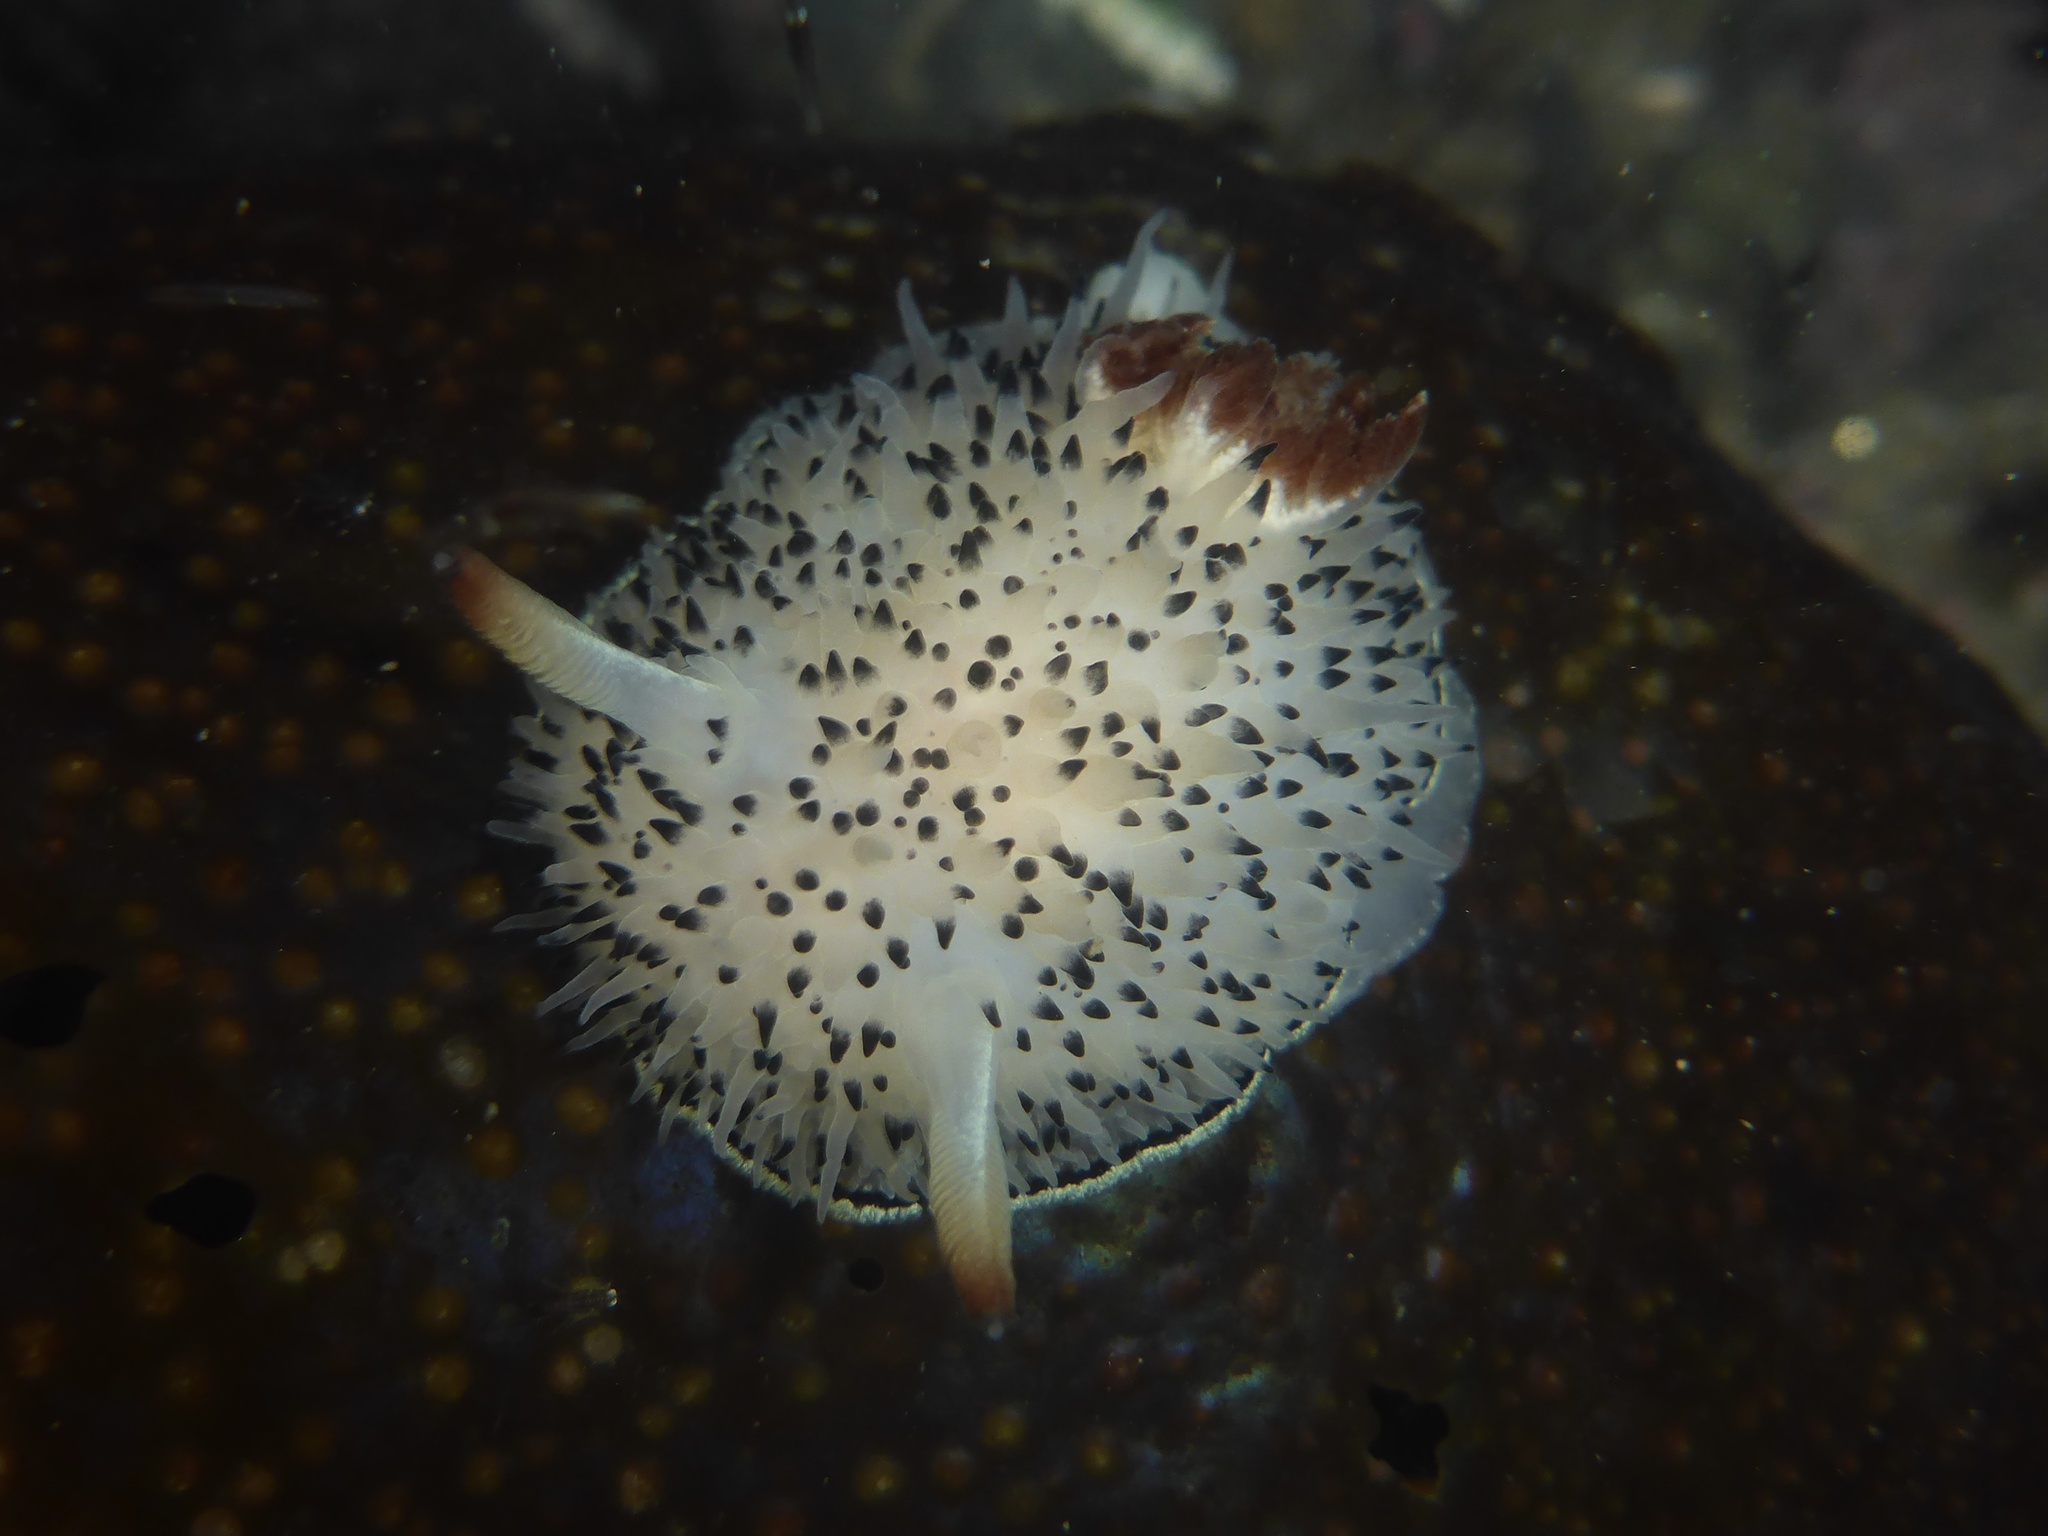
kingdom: Animalia
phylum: Mollusca
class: Gastropoda
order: Nudibranchia
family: Onchidorididae
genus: Acanthodoris
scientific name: Acanthodoris rhodoceras
